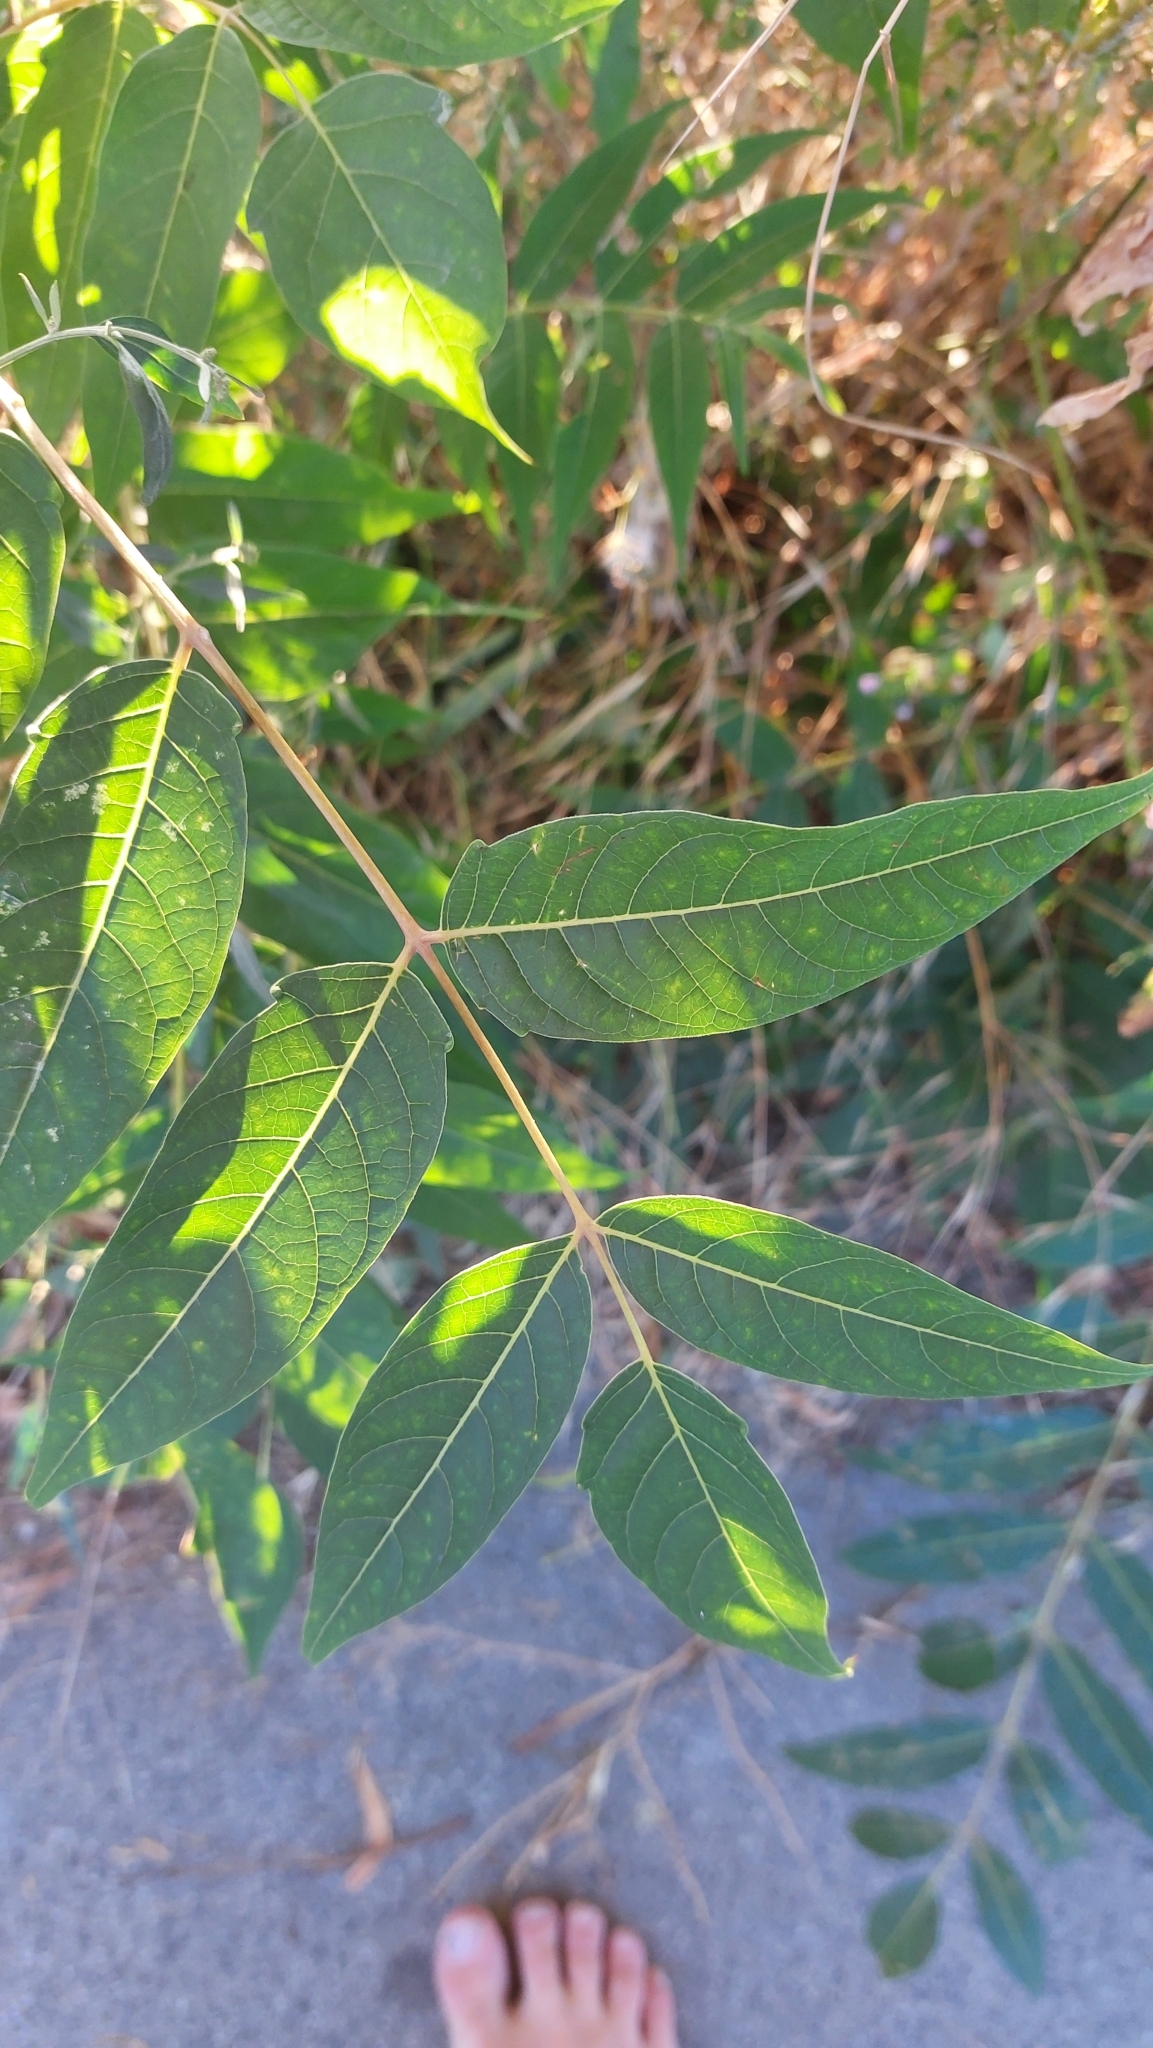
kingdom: Plantae
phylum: Tracheophyta
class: Magnoliopsida
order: Sapindales
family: Simaroubaceae
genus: Ailanthus
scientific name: Ailanthus altissima
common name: Tree-of-heaven
